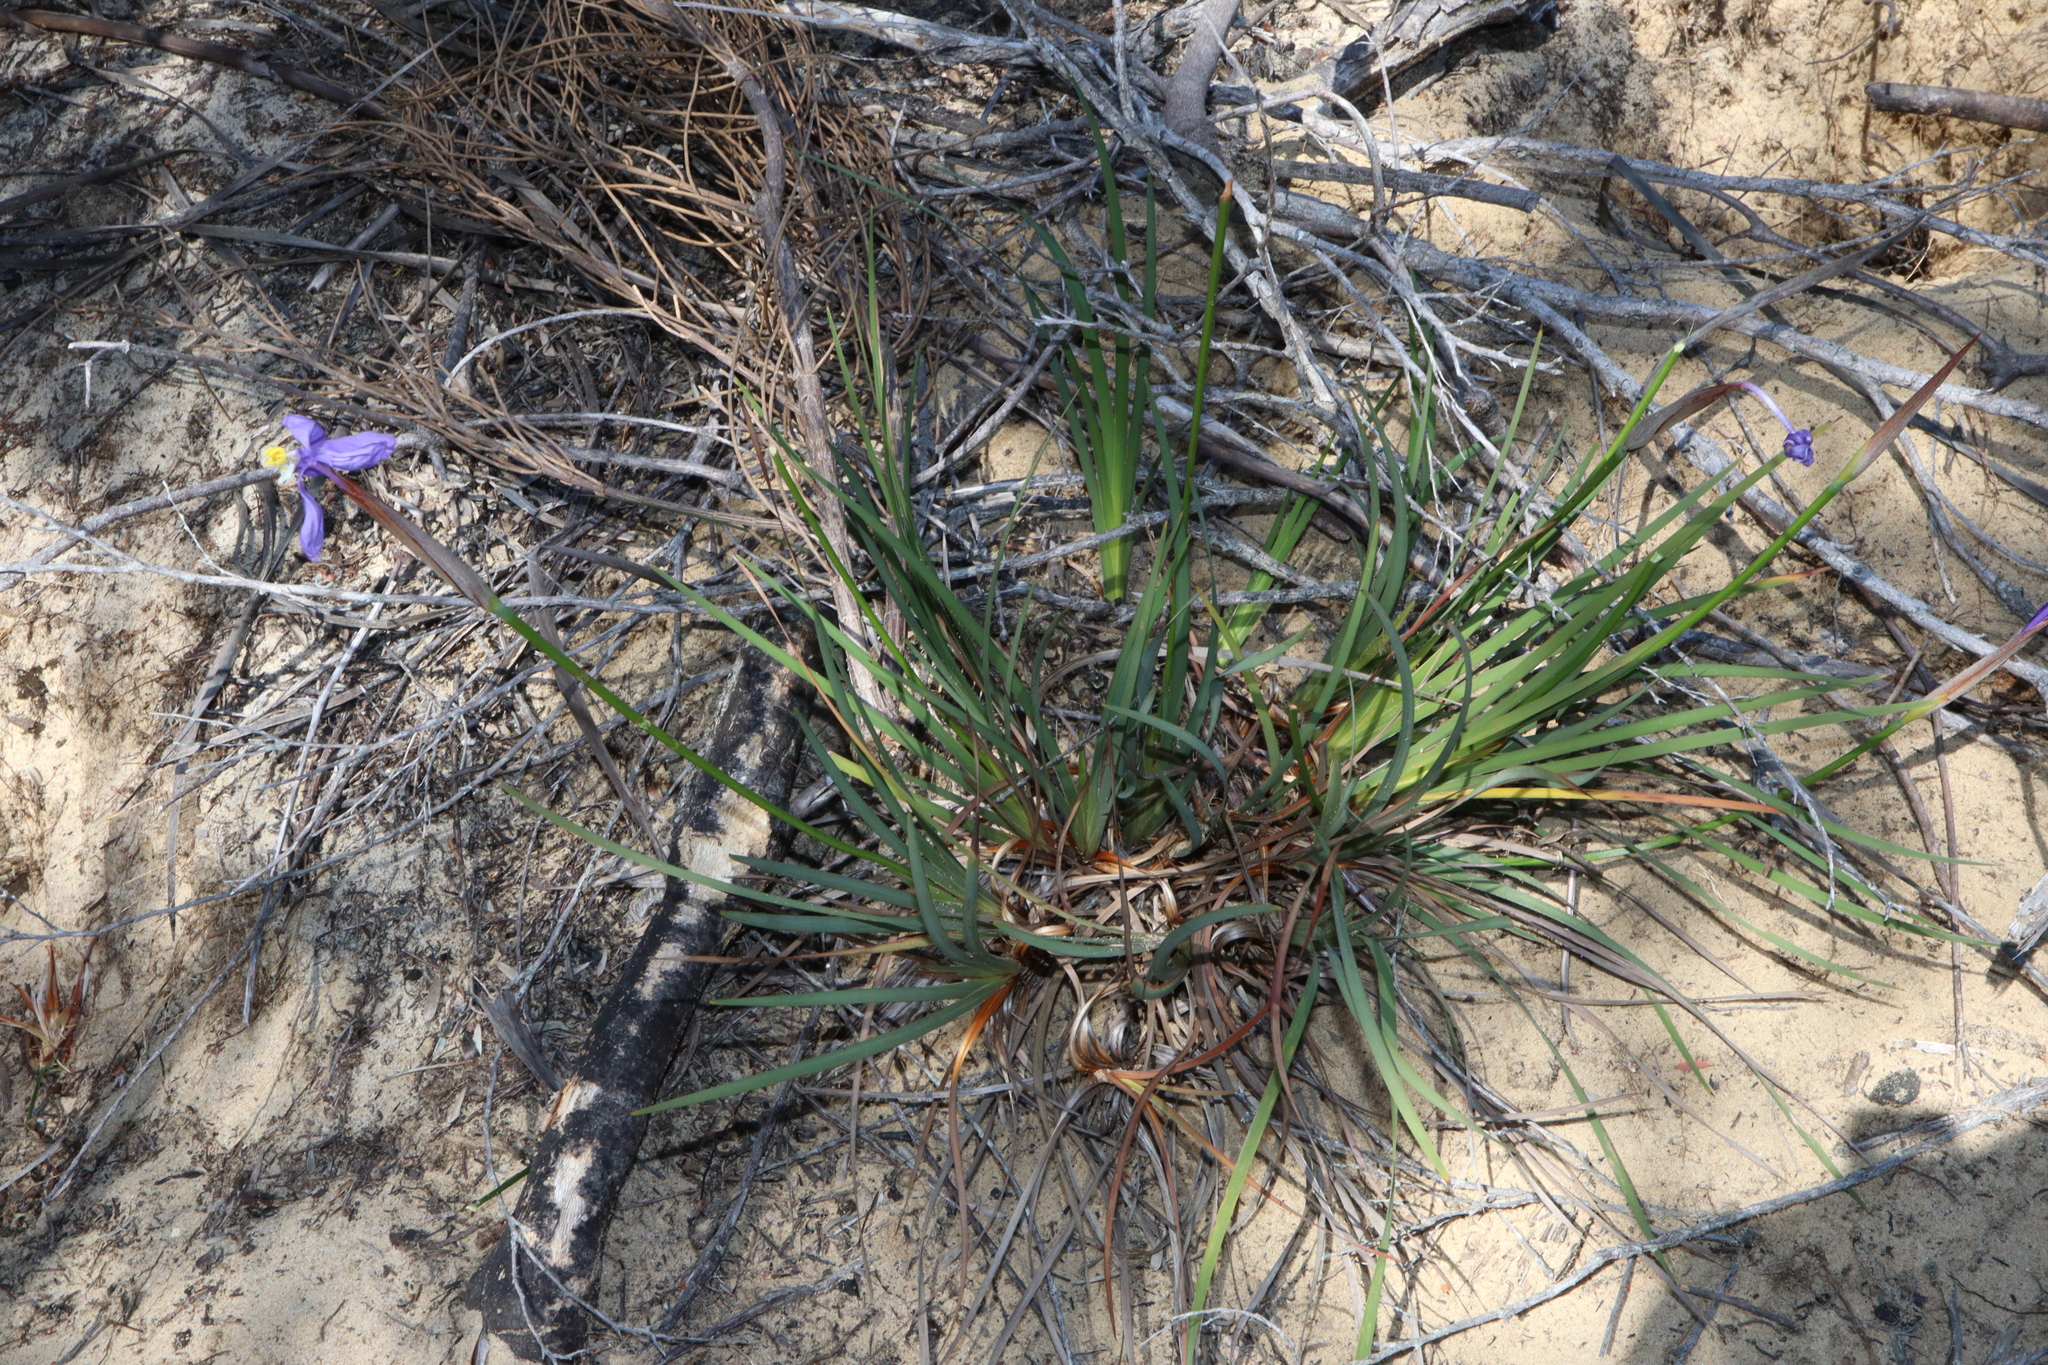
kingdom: Plantae
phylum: Tracheophyta
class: Liliopsida
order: Asparagales
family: Iridaceae
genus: Patersonia
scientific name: Patersonia glabrata
